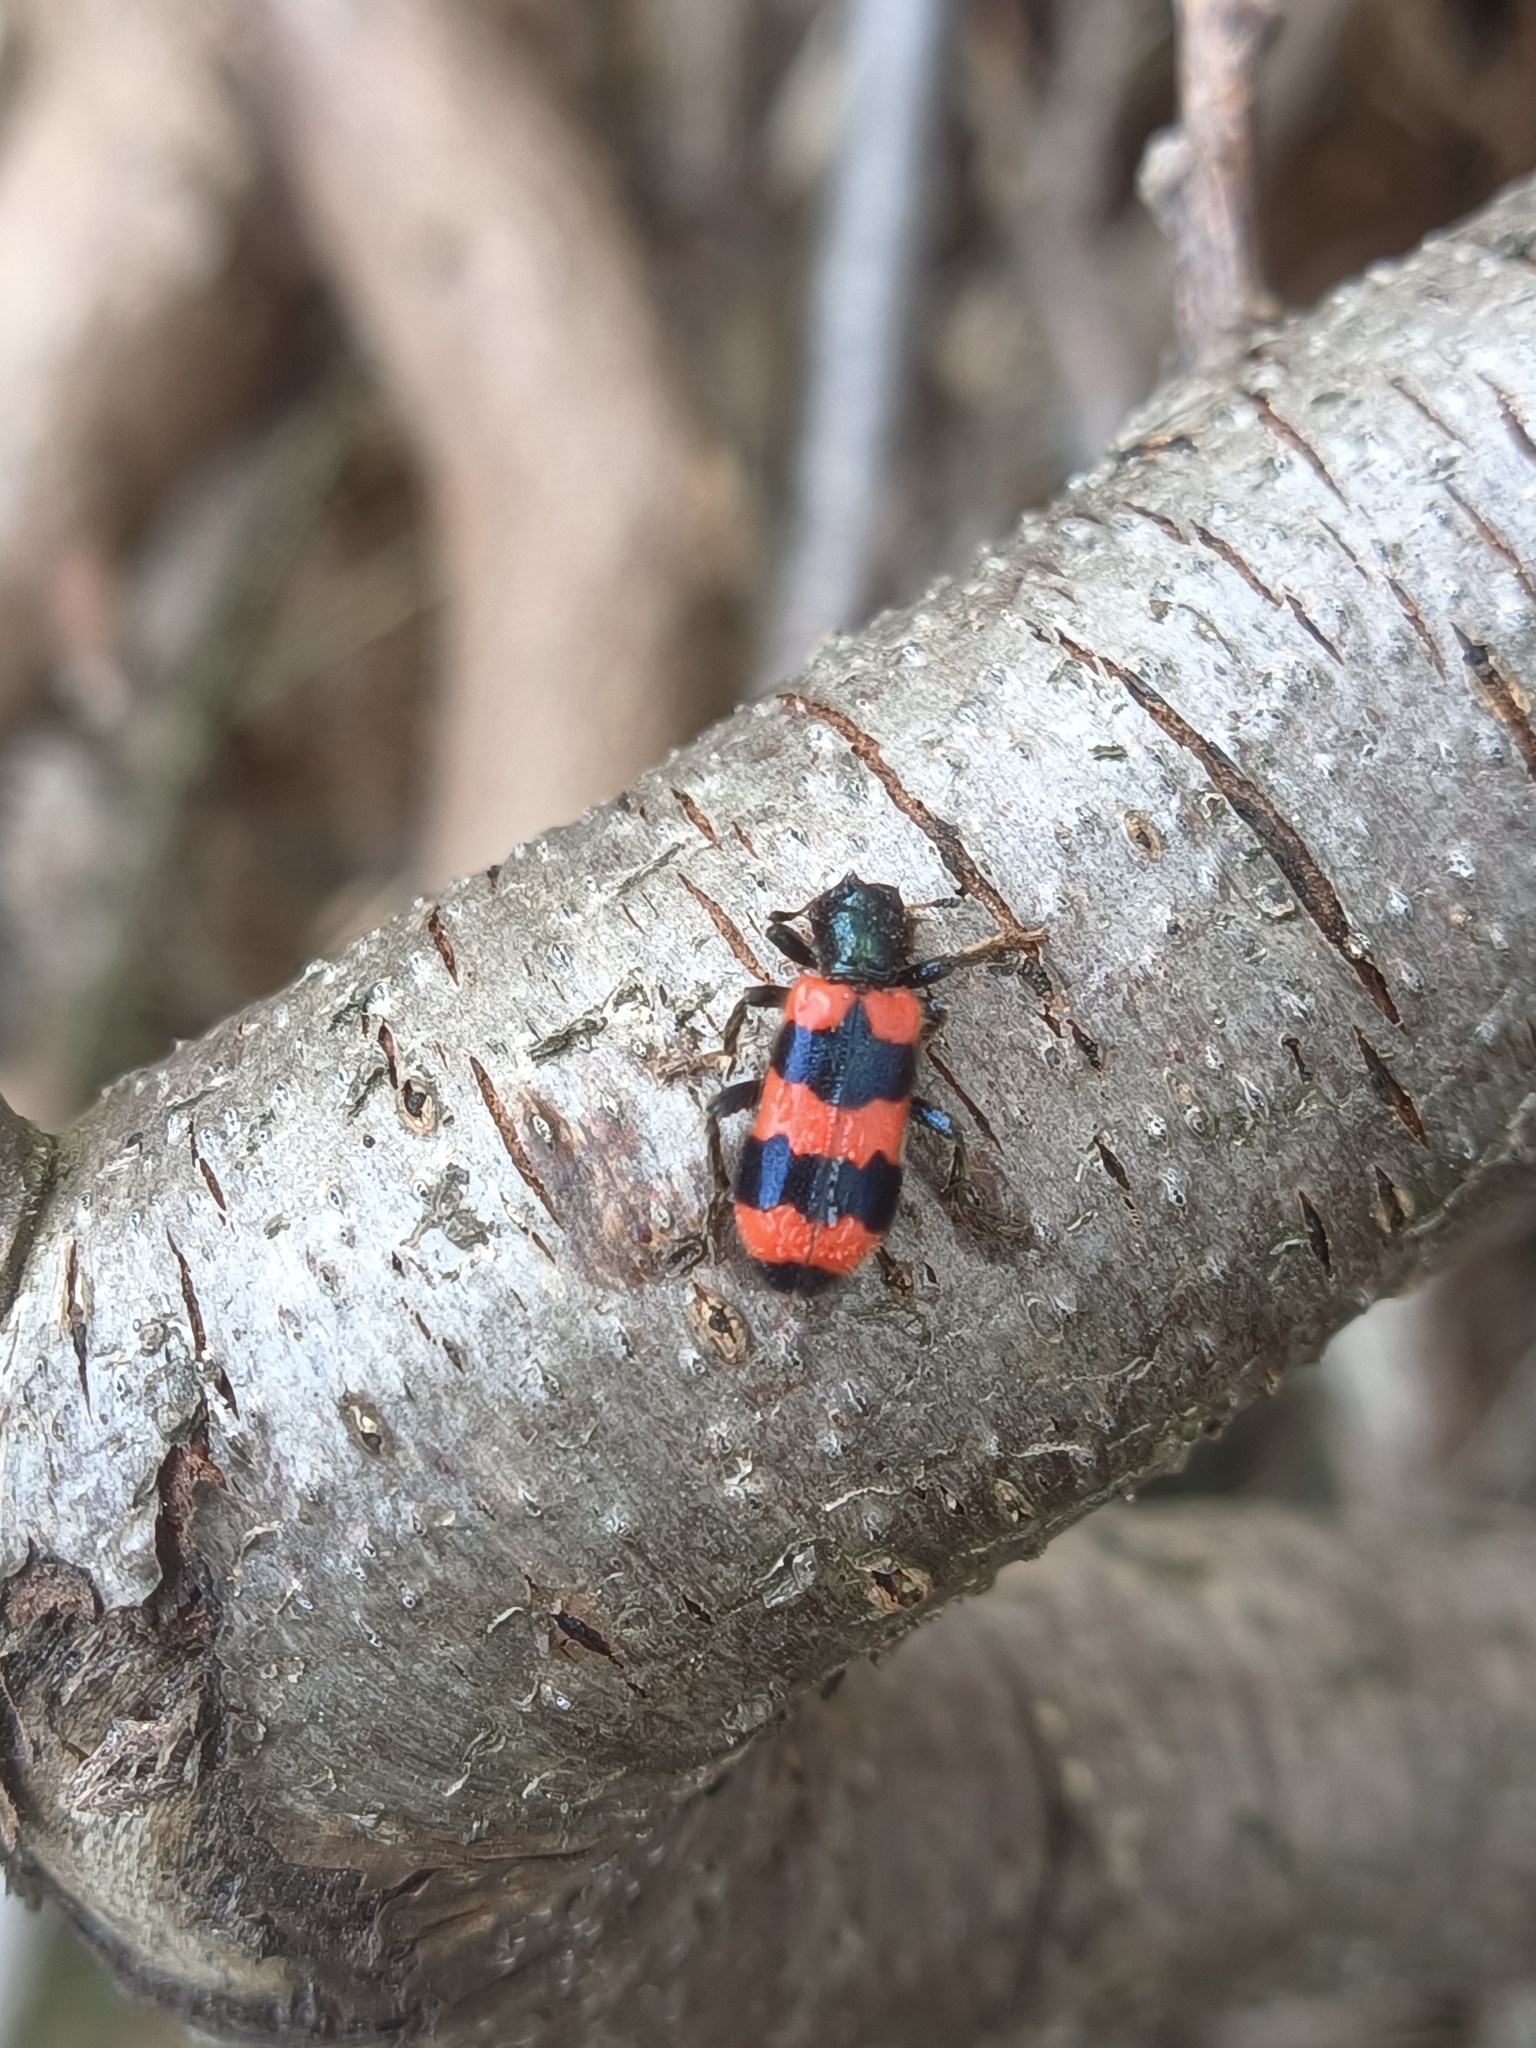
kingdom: Animalia
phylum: Arthropoda
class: Insecta
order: Coleoptera
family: Cleridae
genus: Trichodes
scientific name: Trichodes apiarius
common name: Bee-eating beetle
